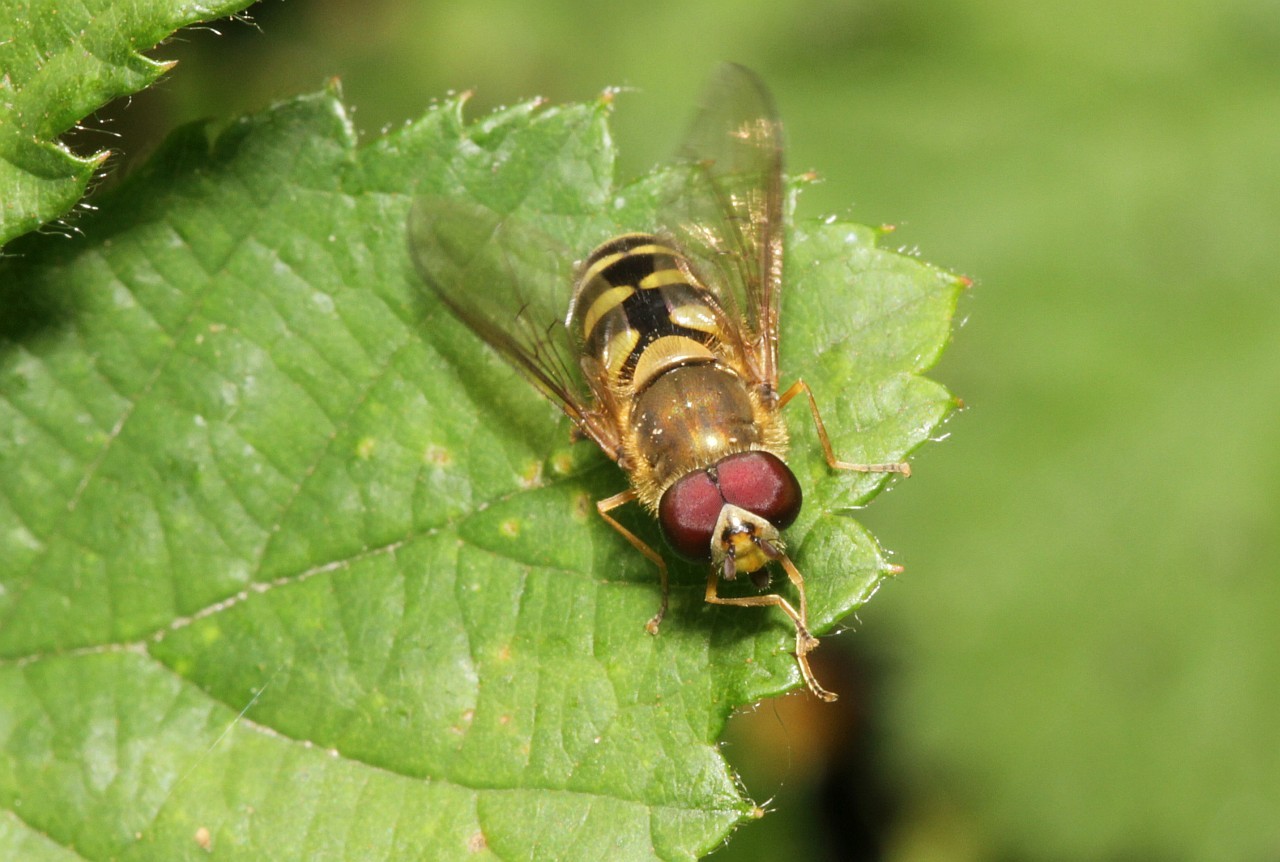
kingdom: Animalia
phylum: Arthropoda
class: Insecta
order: Diptera
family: Syrphidae
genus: Syrphus
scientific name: Syrphus
